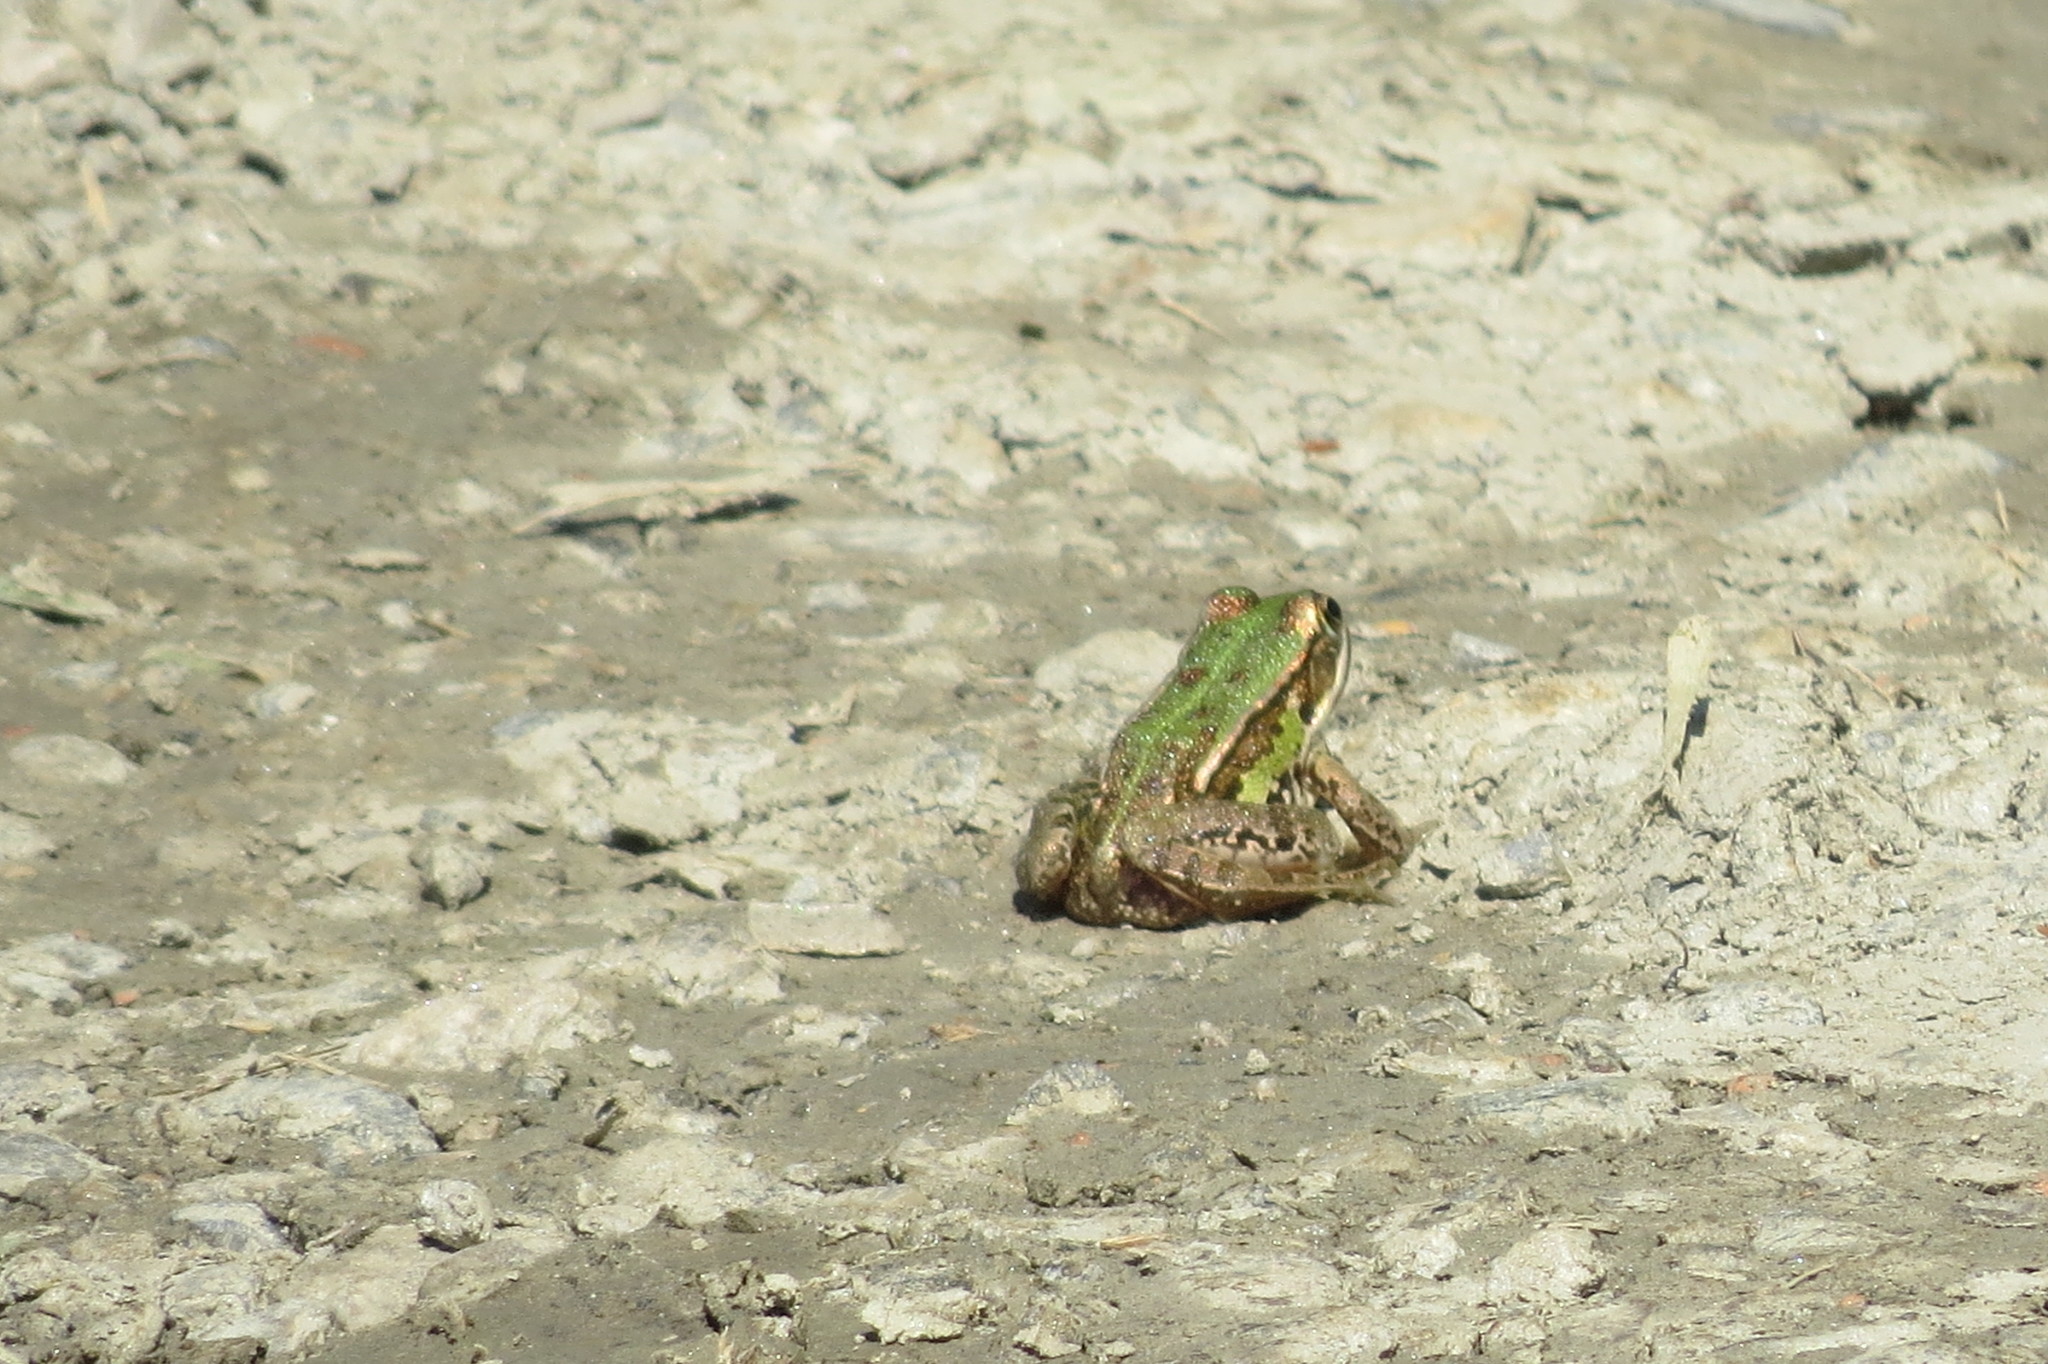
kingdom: Animalia
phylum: Chordata
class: Amphibia
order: Anura
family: Ranidae
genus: Pelophylax
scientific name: Pelophylax
